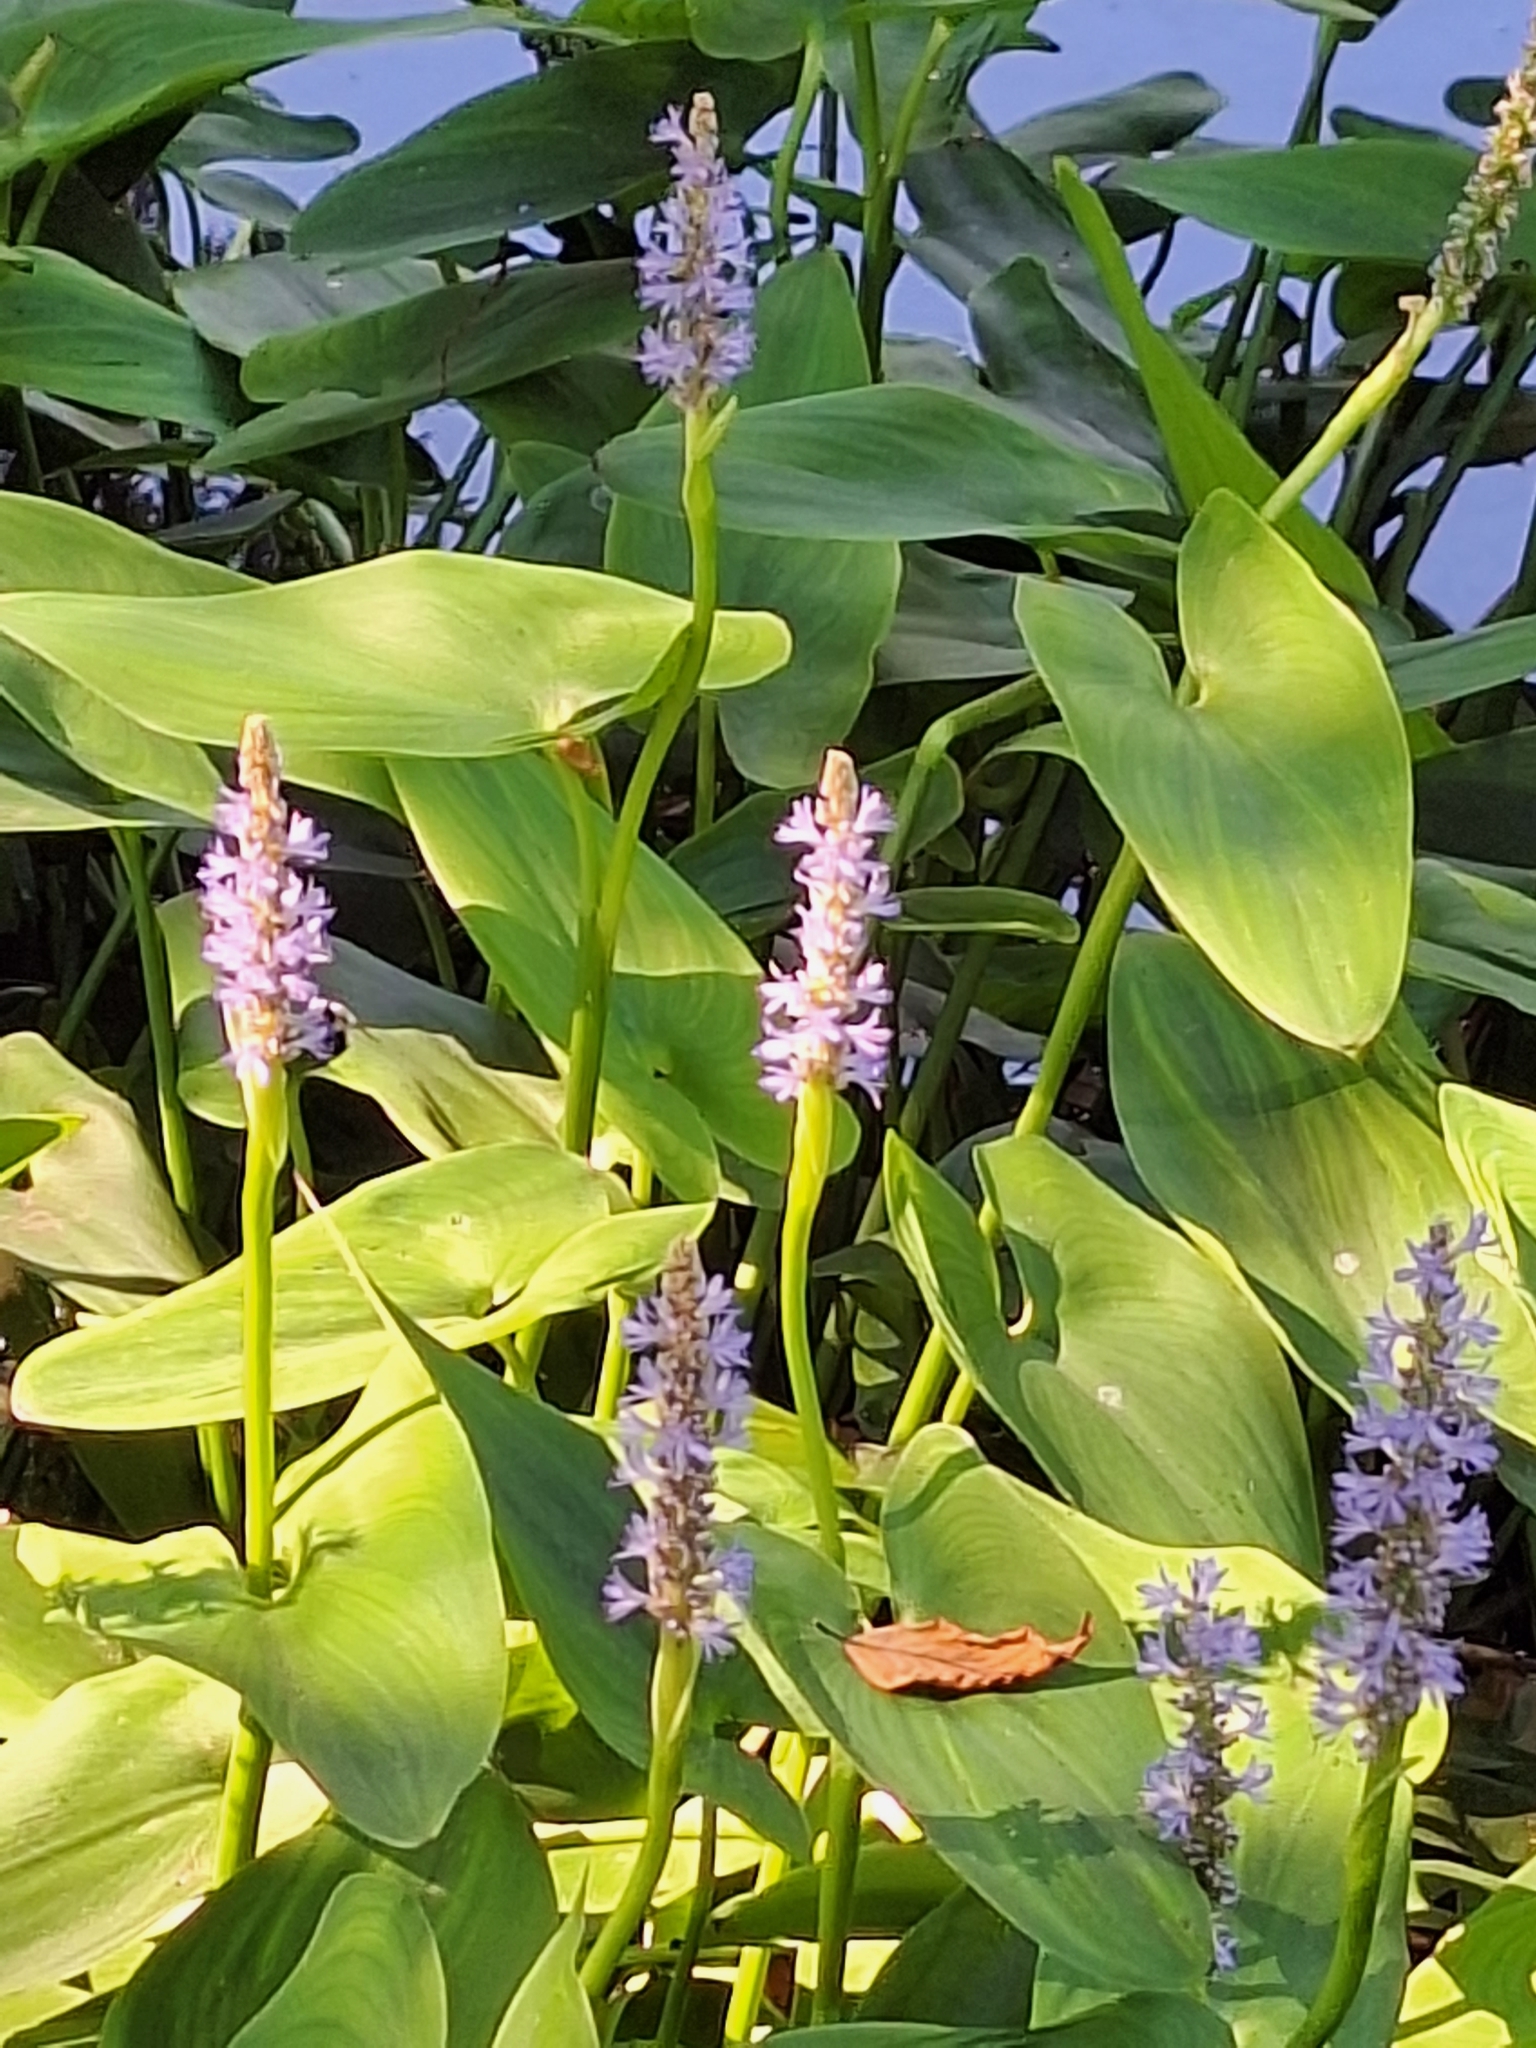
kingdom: Plantae
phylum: Tracheophyta
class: Liliopsida
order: Commelinales
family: Pontederiaceae
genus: Pontederia
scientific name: Pontederia cordata
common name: Pickerelweed
